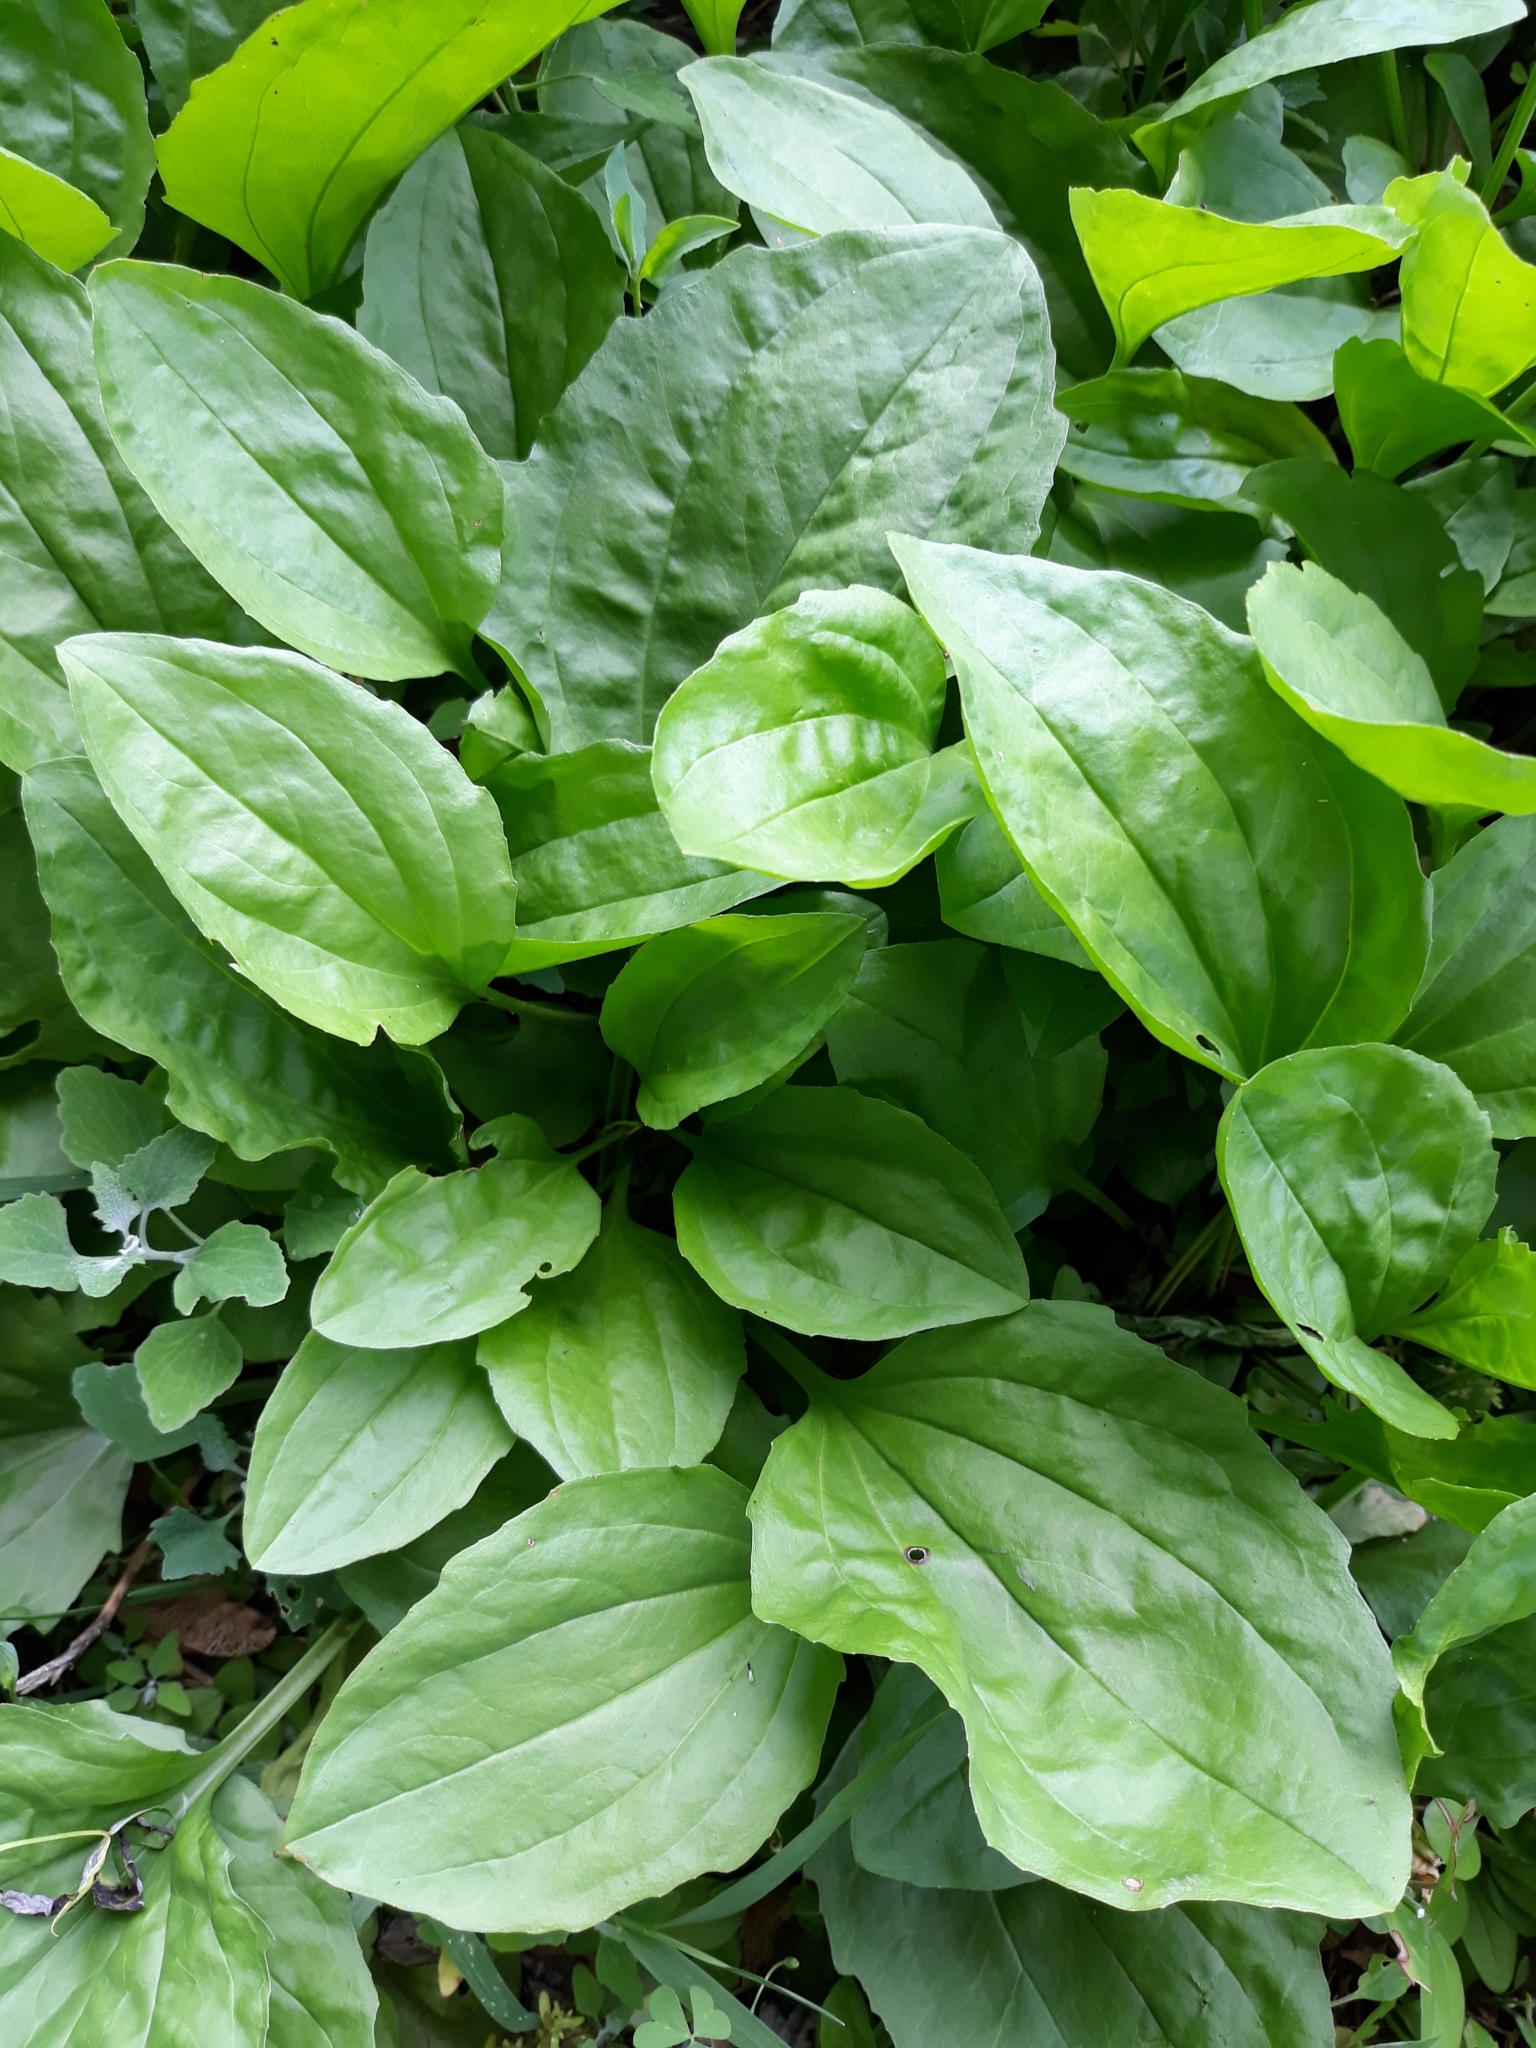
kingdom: Plantae
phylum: Tracheophyta
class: Magnoliopsida
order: Lamiales
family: Plantaginaceae
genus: Plantago
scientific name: Plantago rugelii
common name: American plantain
